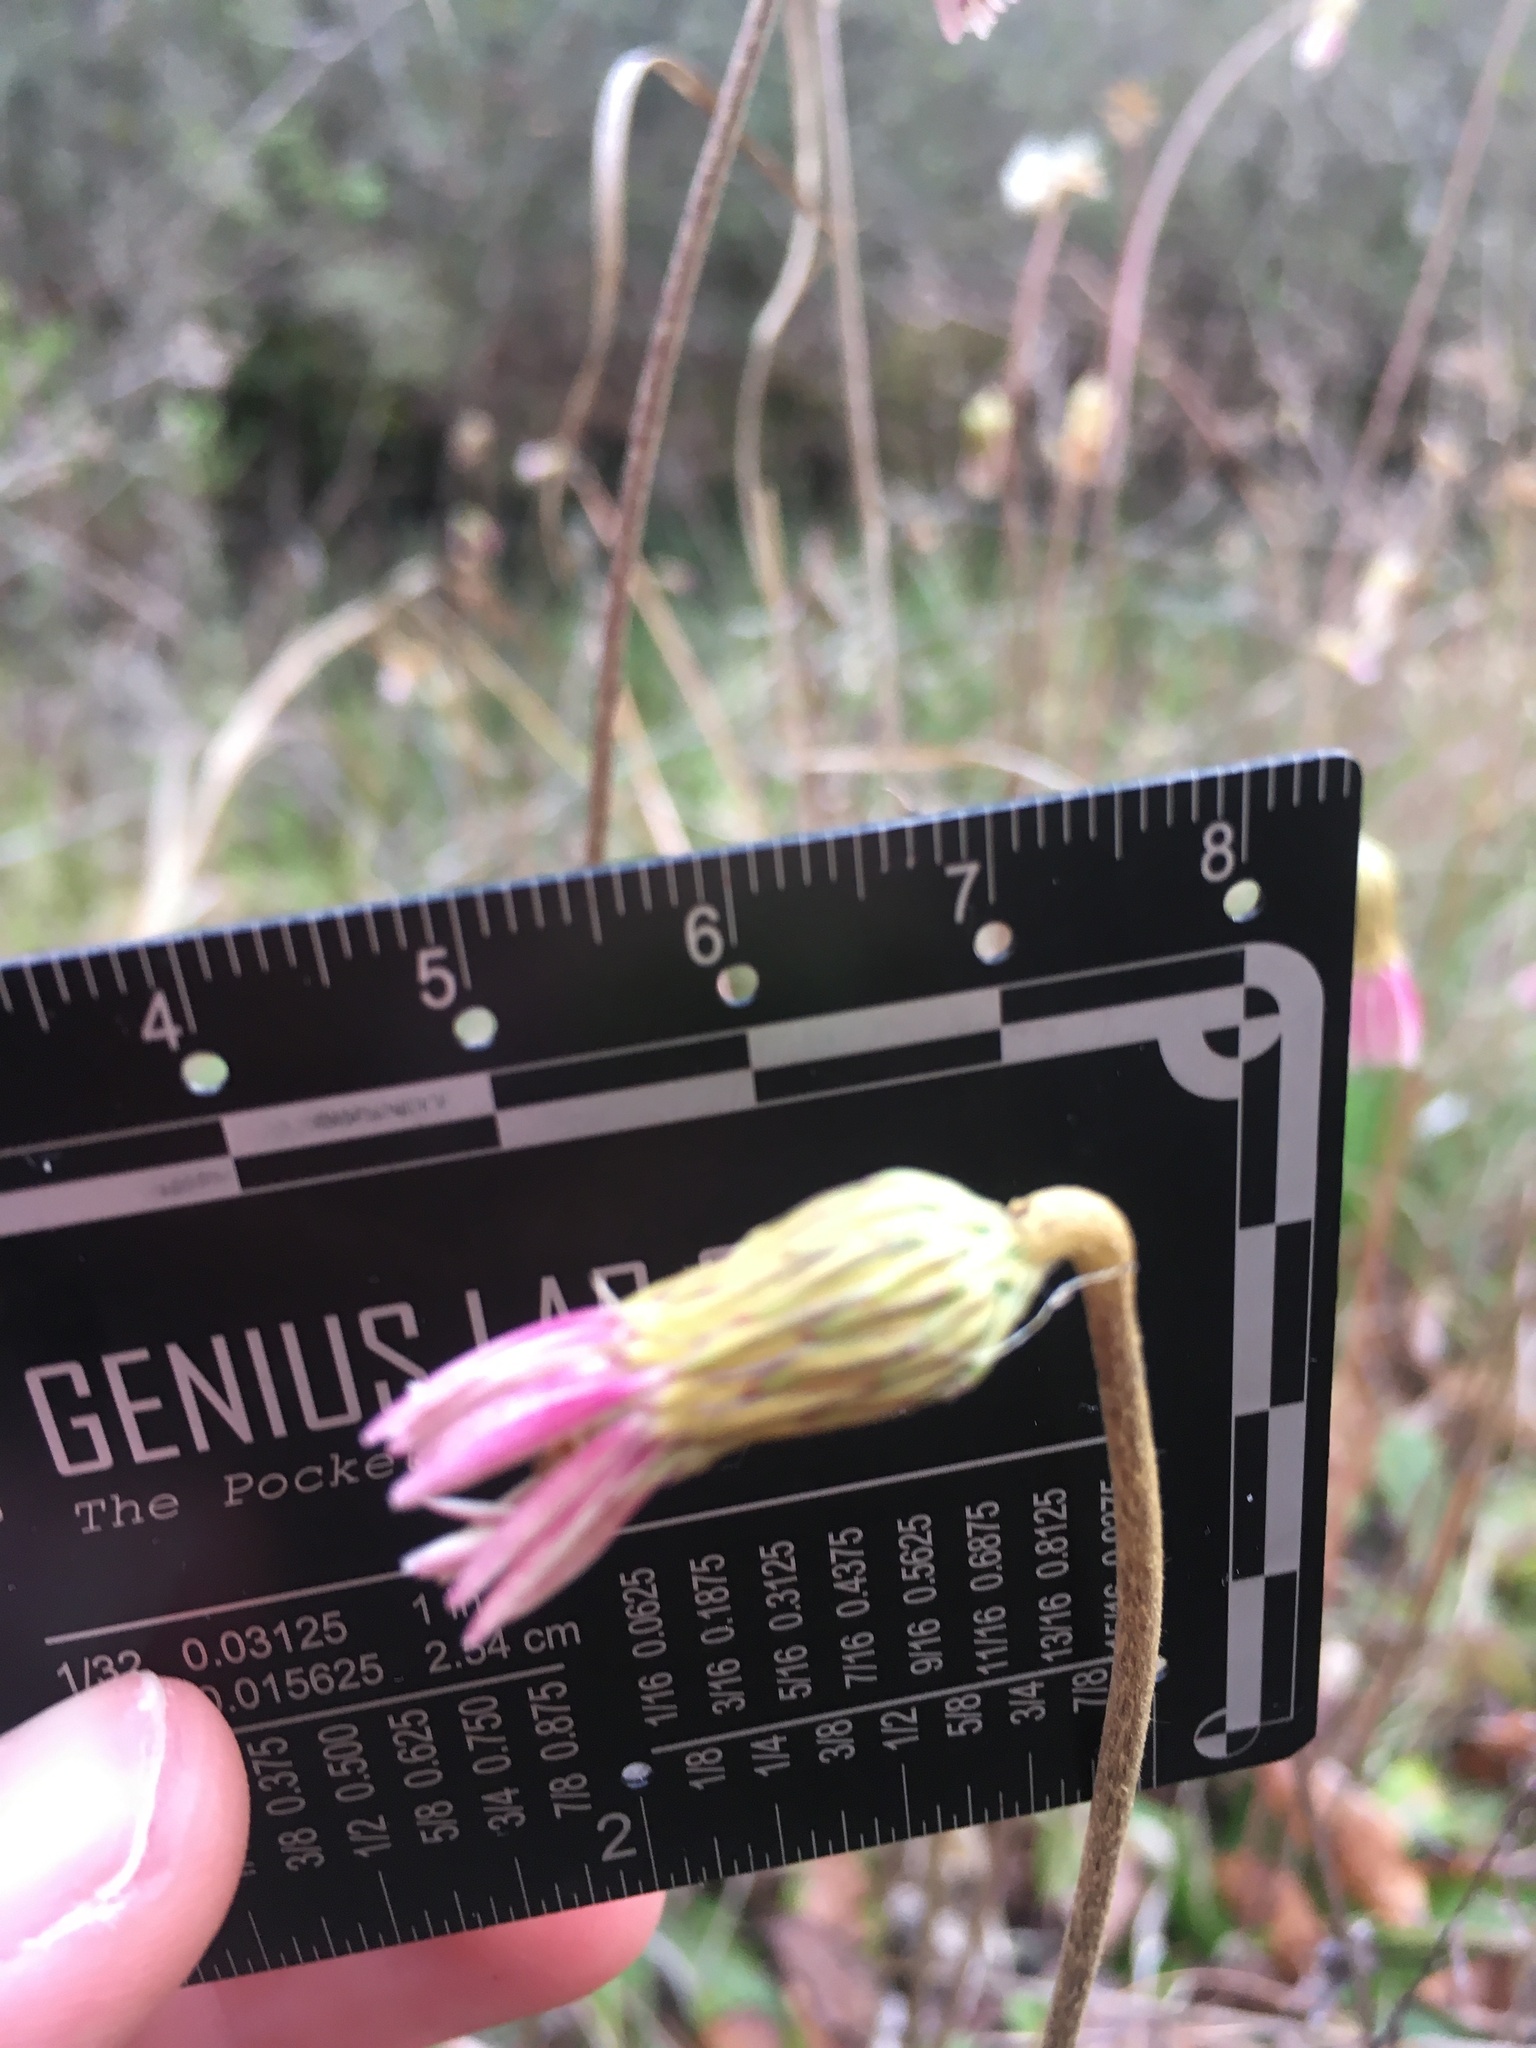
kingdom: Plantae
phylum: Tracheophyta
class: Magnoliopsida
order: Asterales
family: Asteraceae
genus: Chaptalia
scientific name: Chaptalia tomentosa
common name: Woolly sunbonnet
